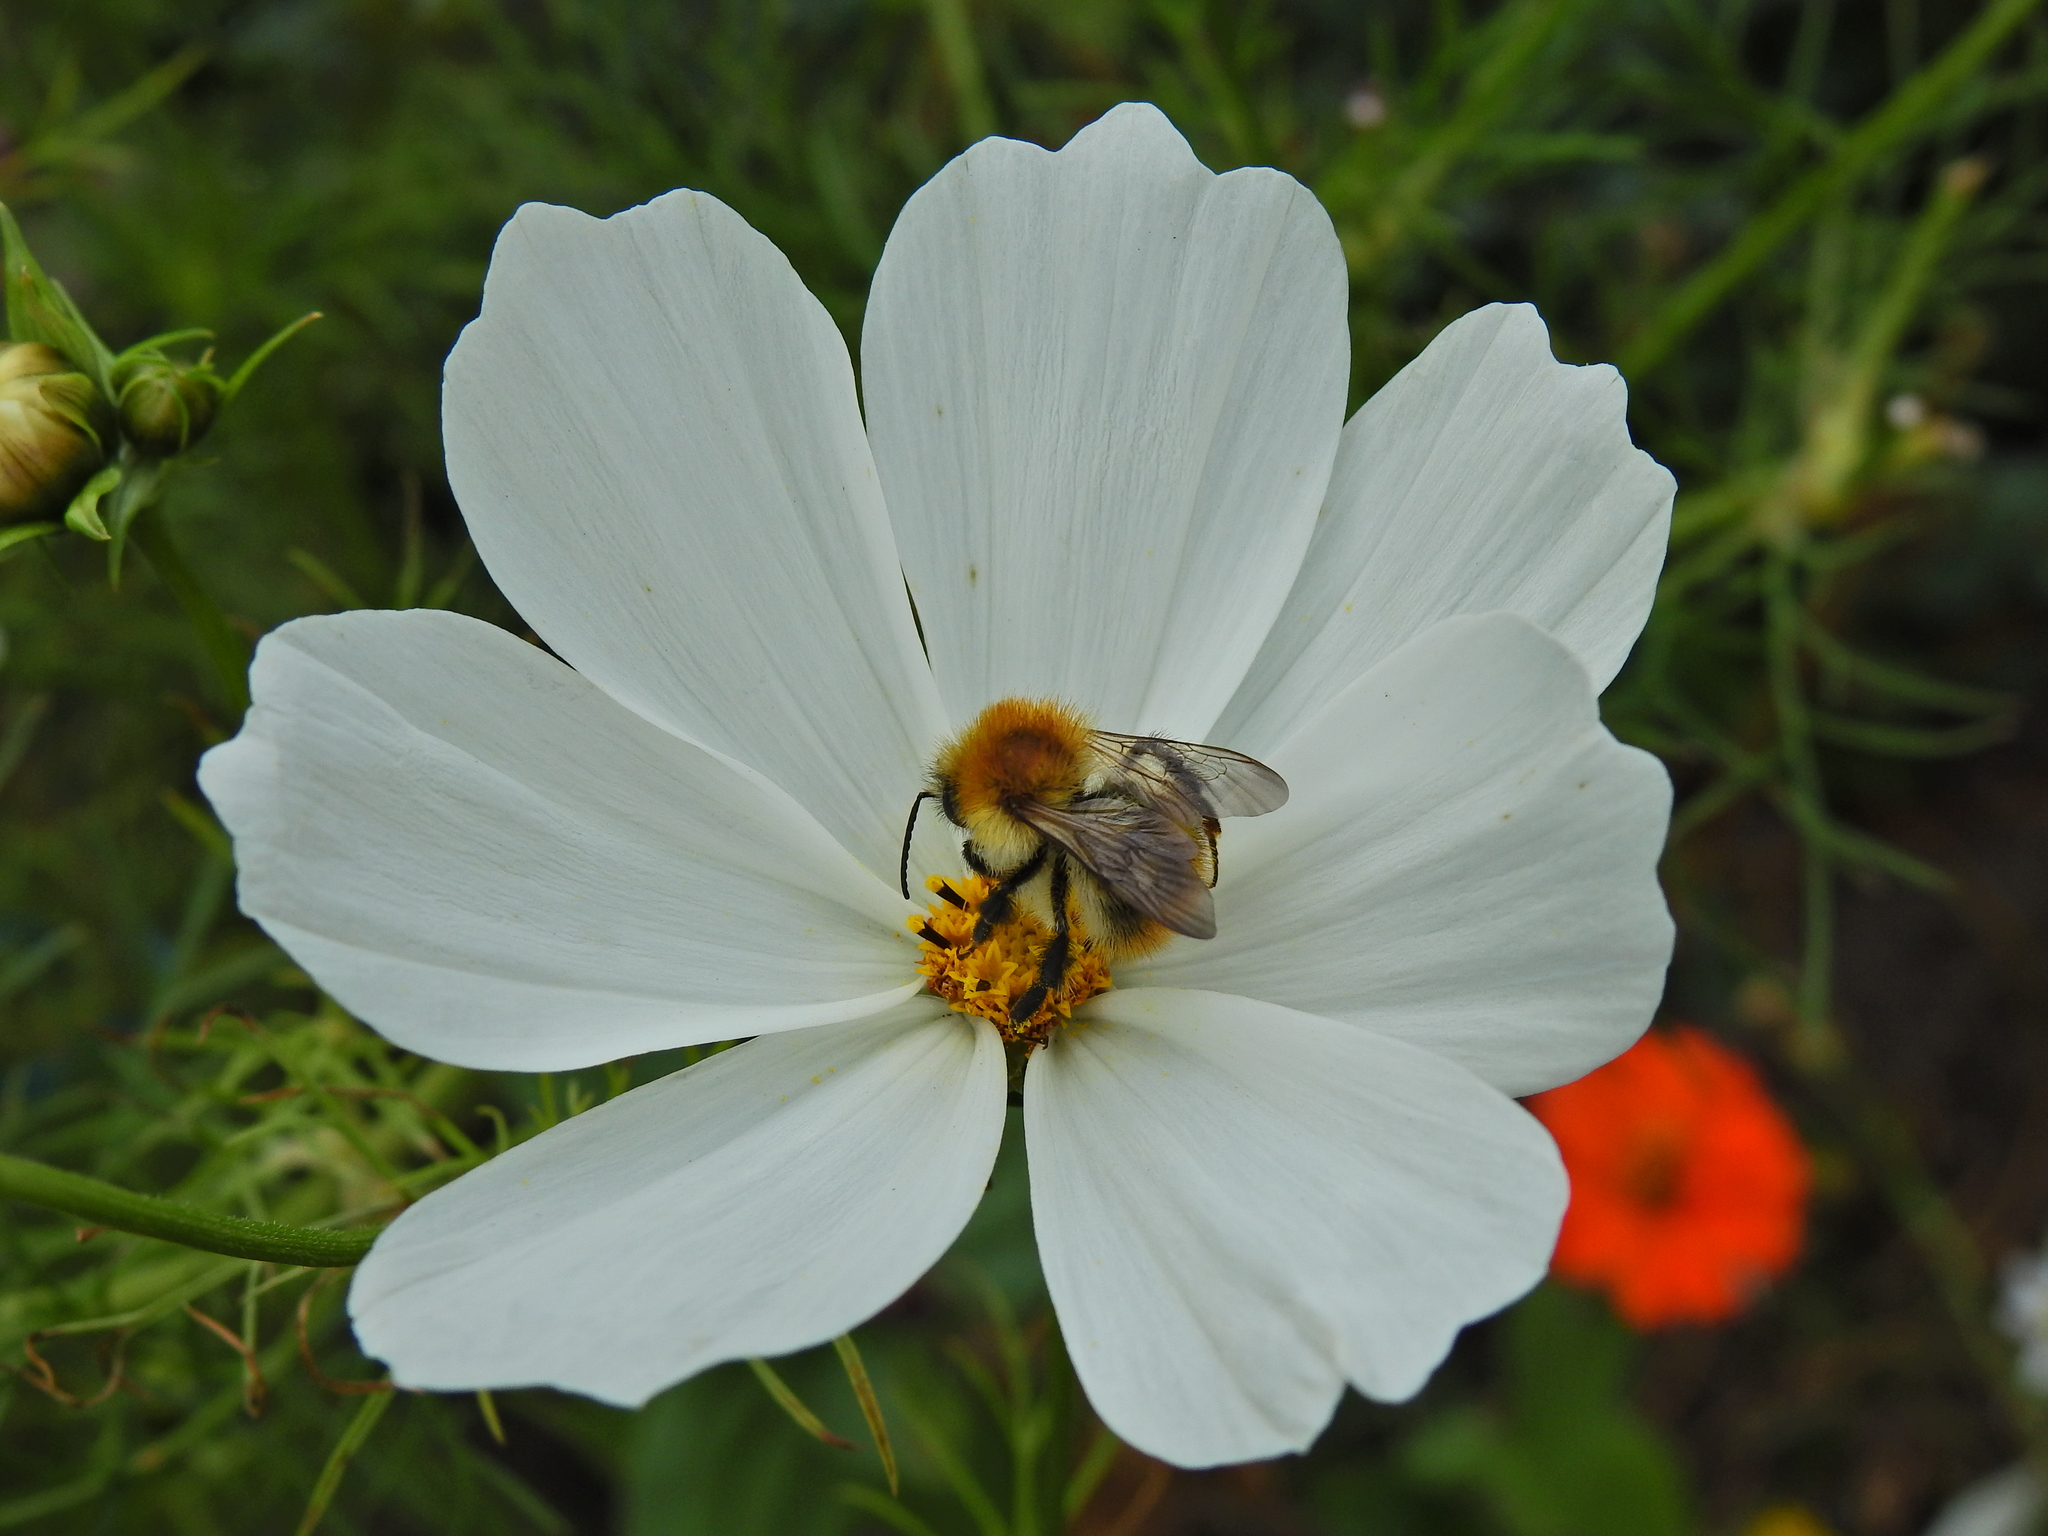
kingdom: Animalia
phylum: Arthropoda
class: Insecta
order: Hymenoptera
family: Apidae
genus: Bombus
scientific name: Bombus pascuorum
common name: Common carder bee
